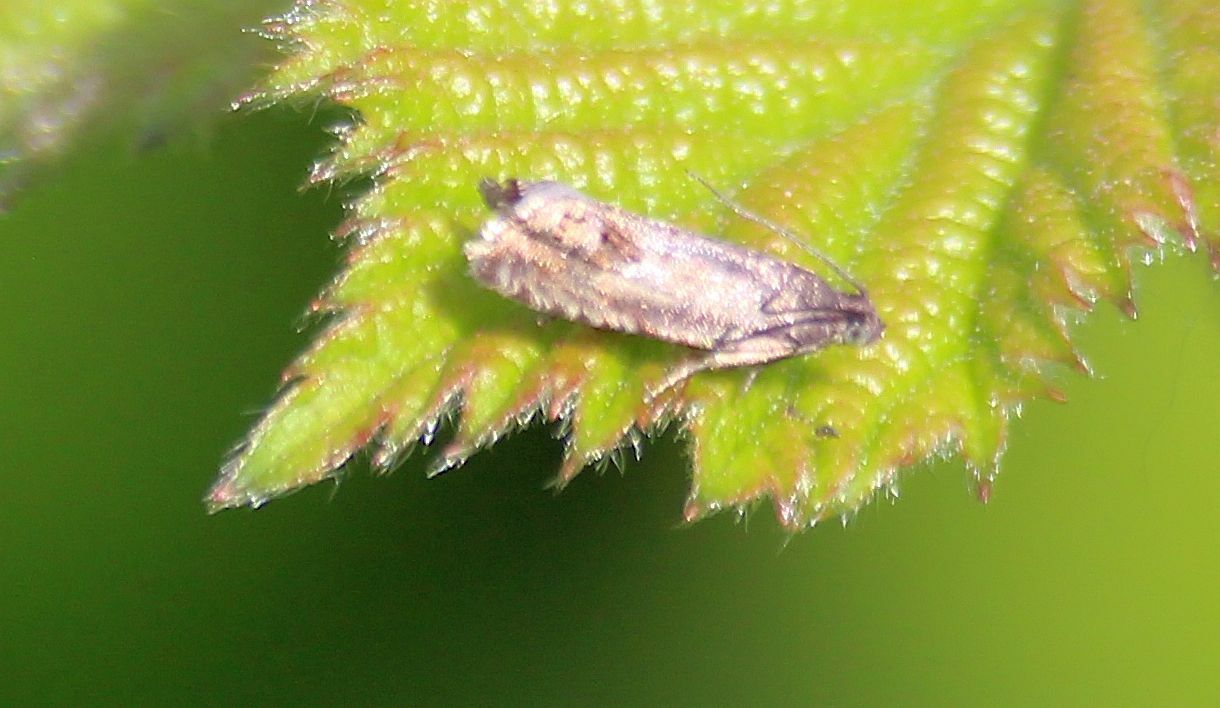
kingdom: Animalia
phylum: Arthropoda
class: Insecta
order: Lepidoptera
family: Tortricidae
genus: Cydia
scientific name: Cydia succedana
